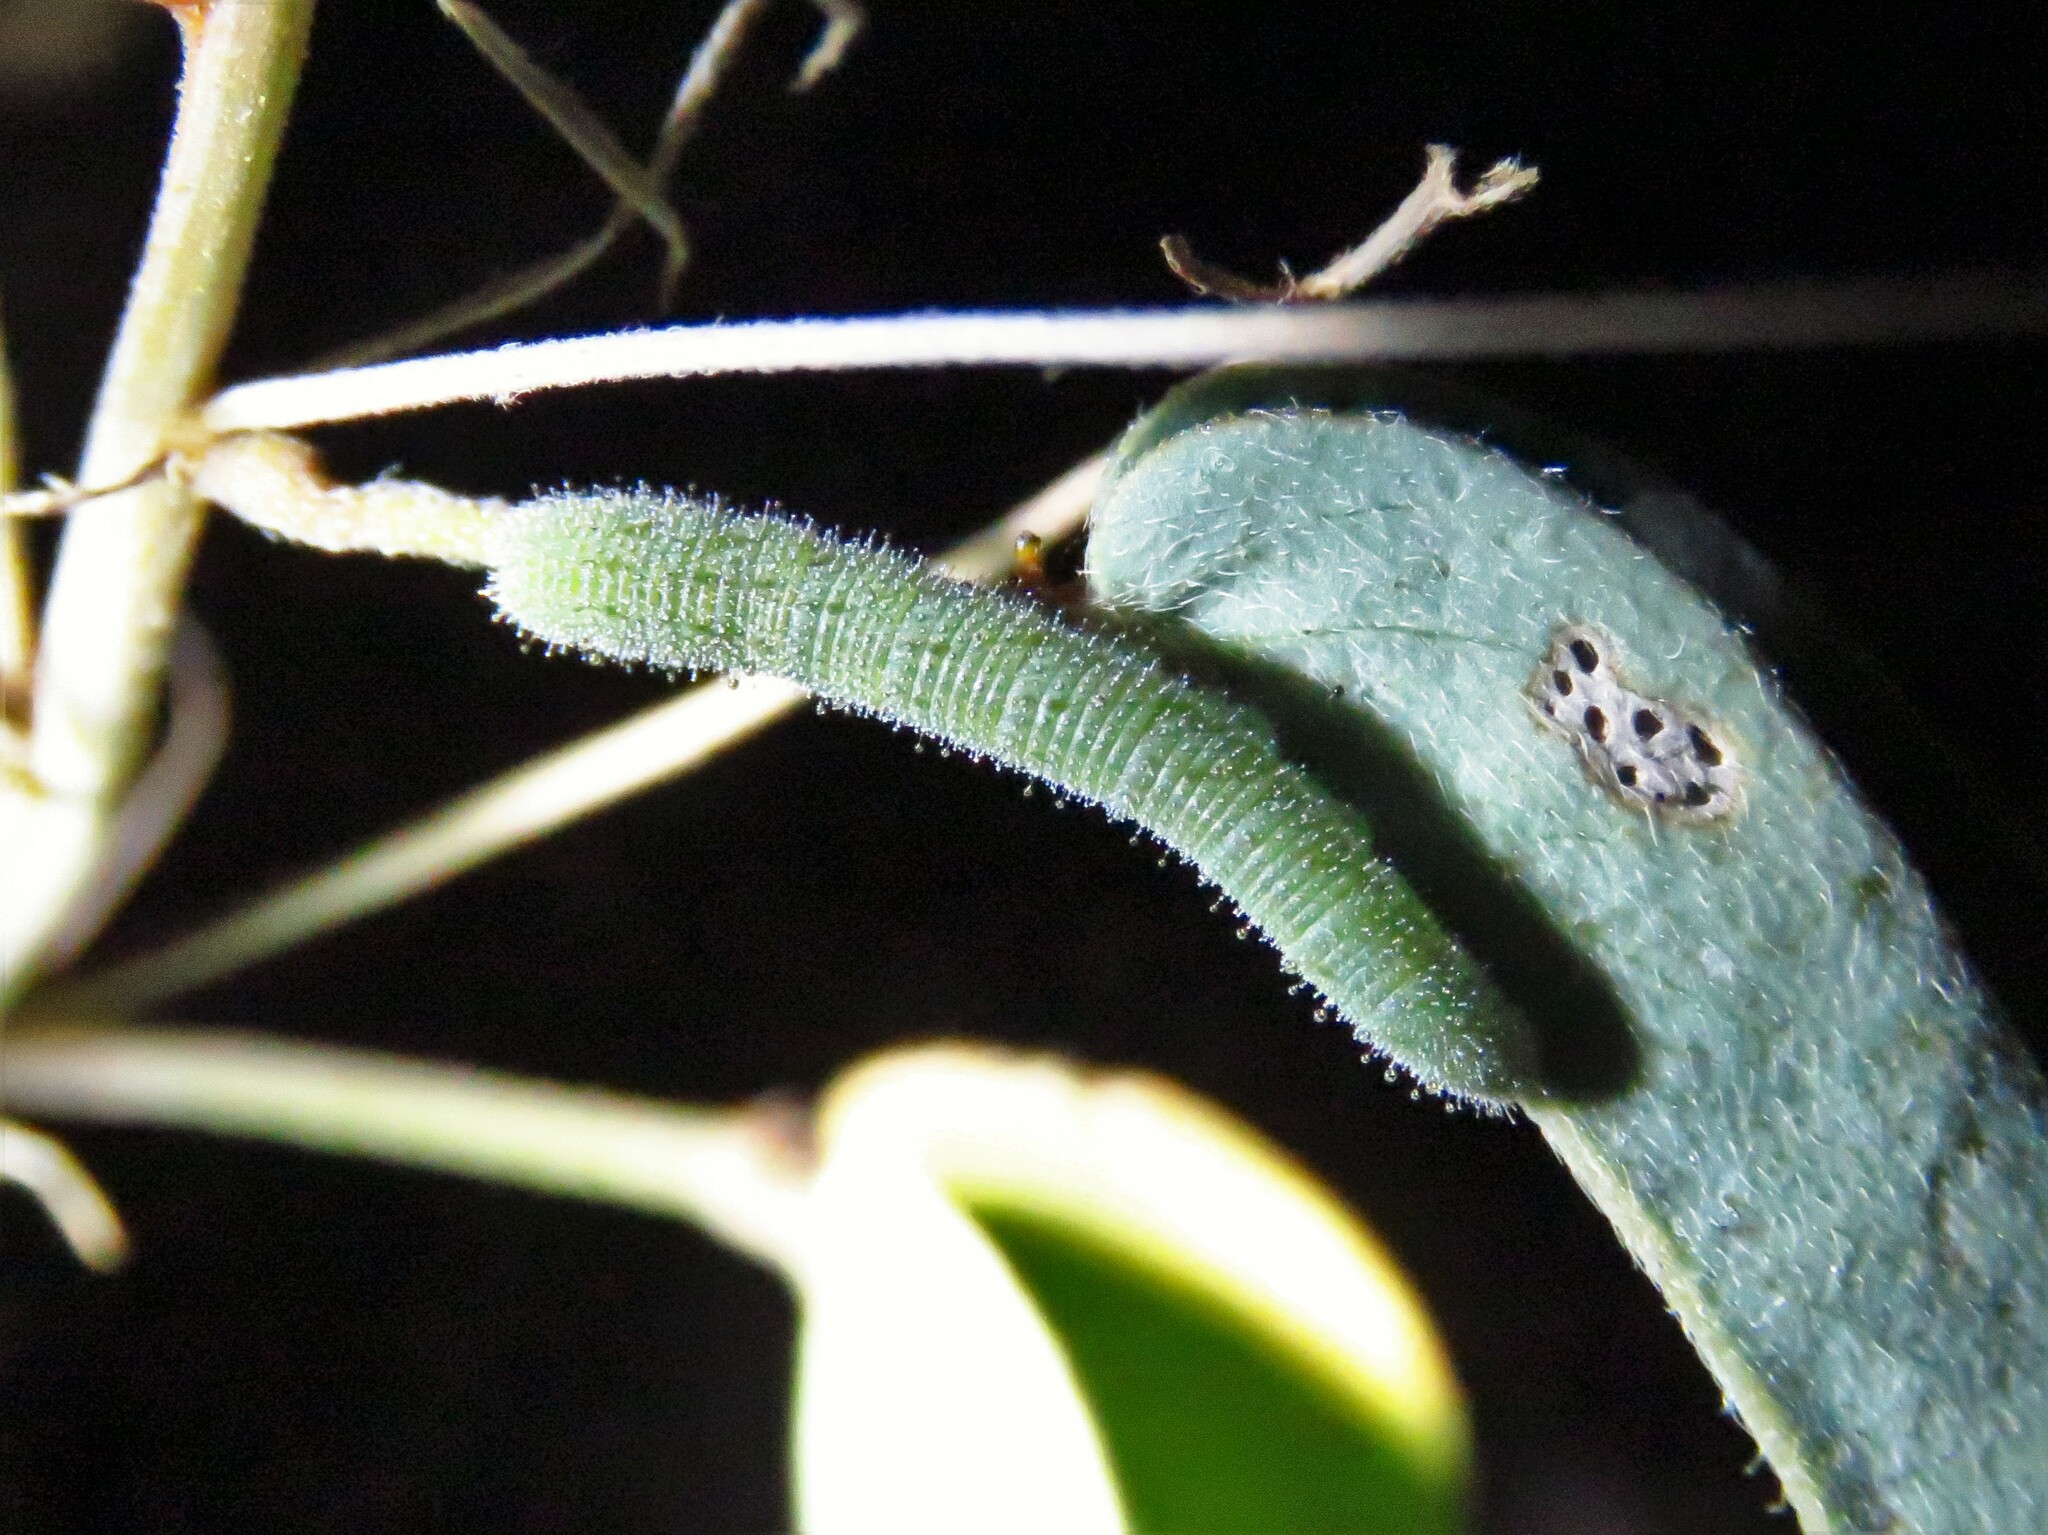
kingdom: Animalia
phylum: Arthropoda
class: Insecta
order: Lepidoptera
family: Pieridae
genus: Abaeis
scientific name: Abaeis nicippe
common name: Sleepy orange
